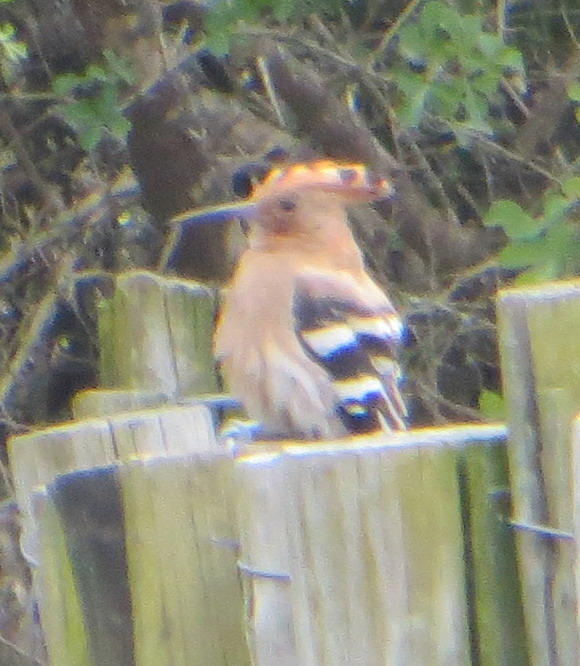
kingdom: Animalia
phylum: Chordata
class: Aves
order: Bucerotiformes
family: Upupidae
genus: Upupa
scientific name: Upupa africana
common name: African hoopoe
